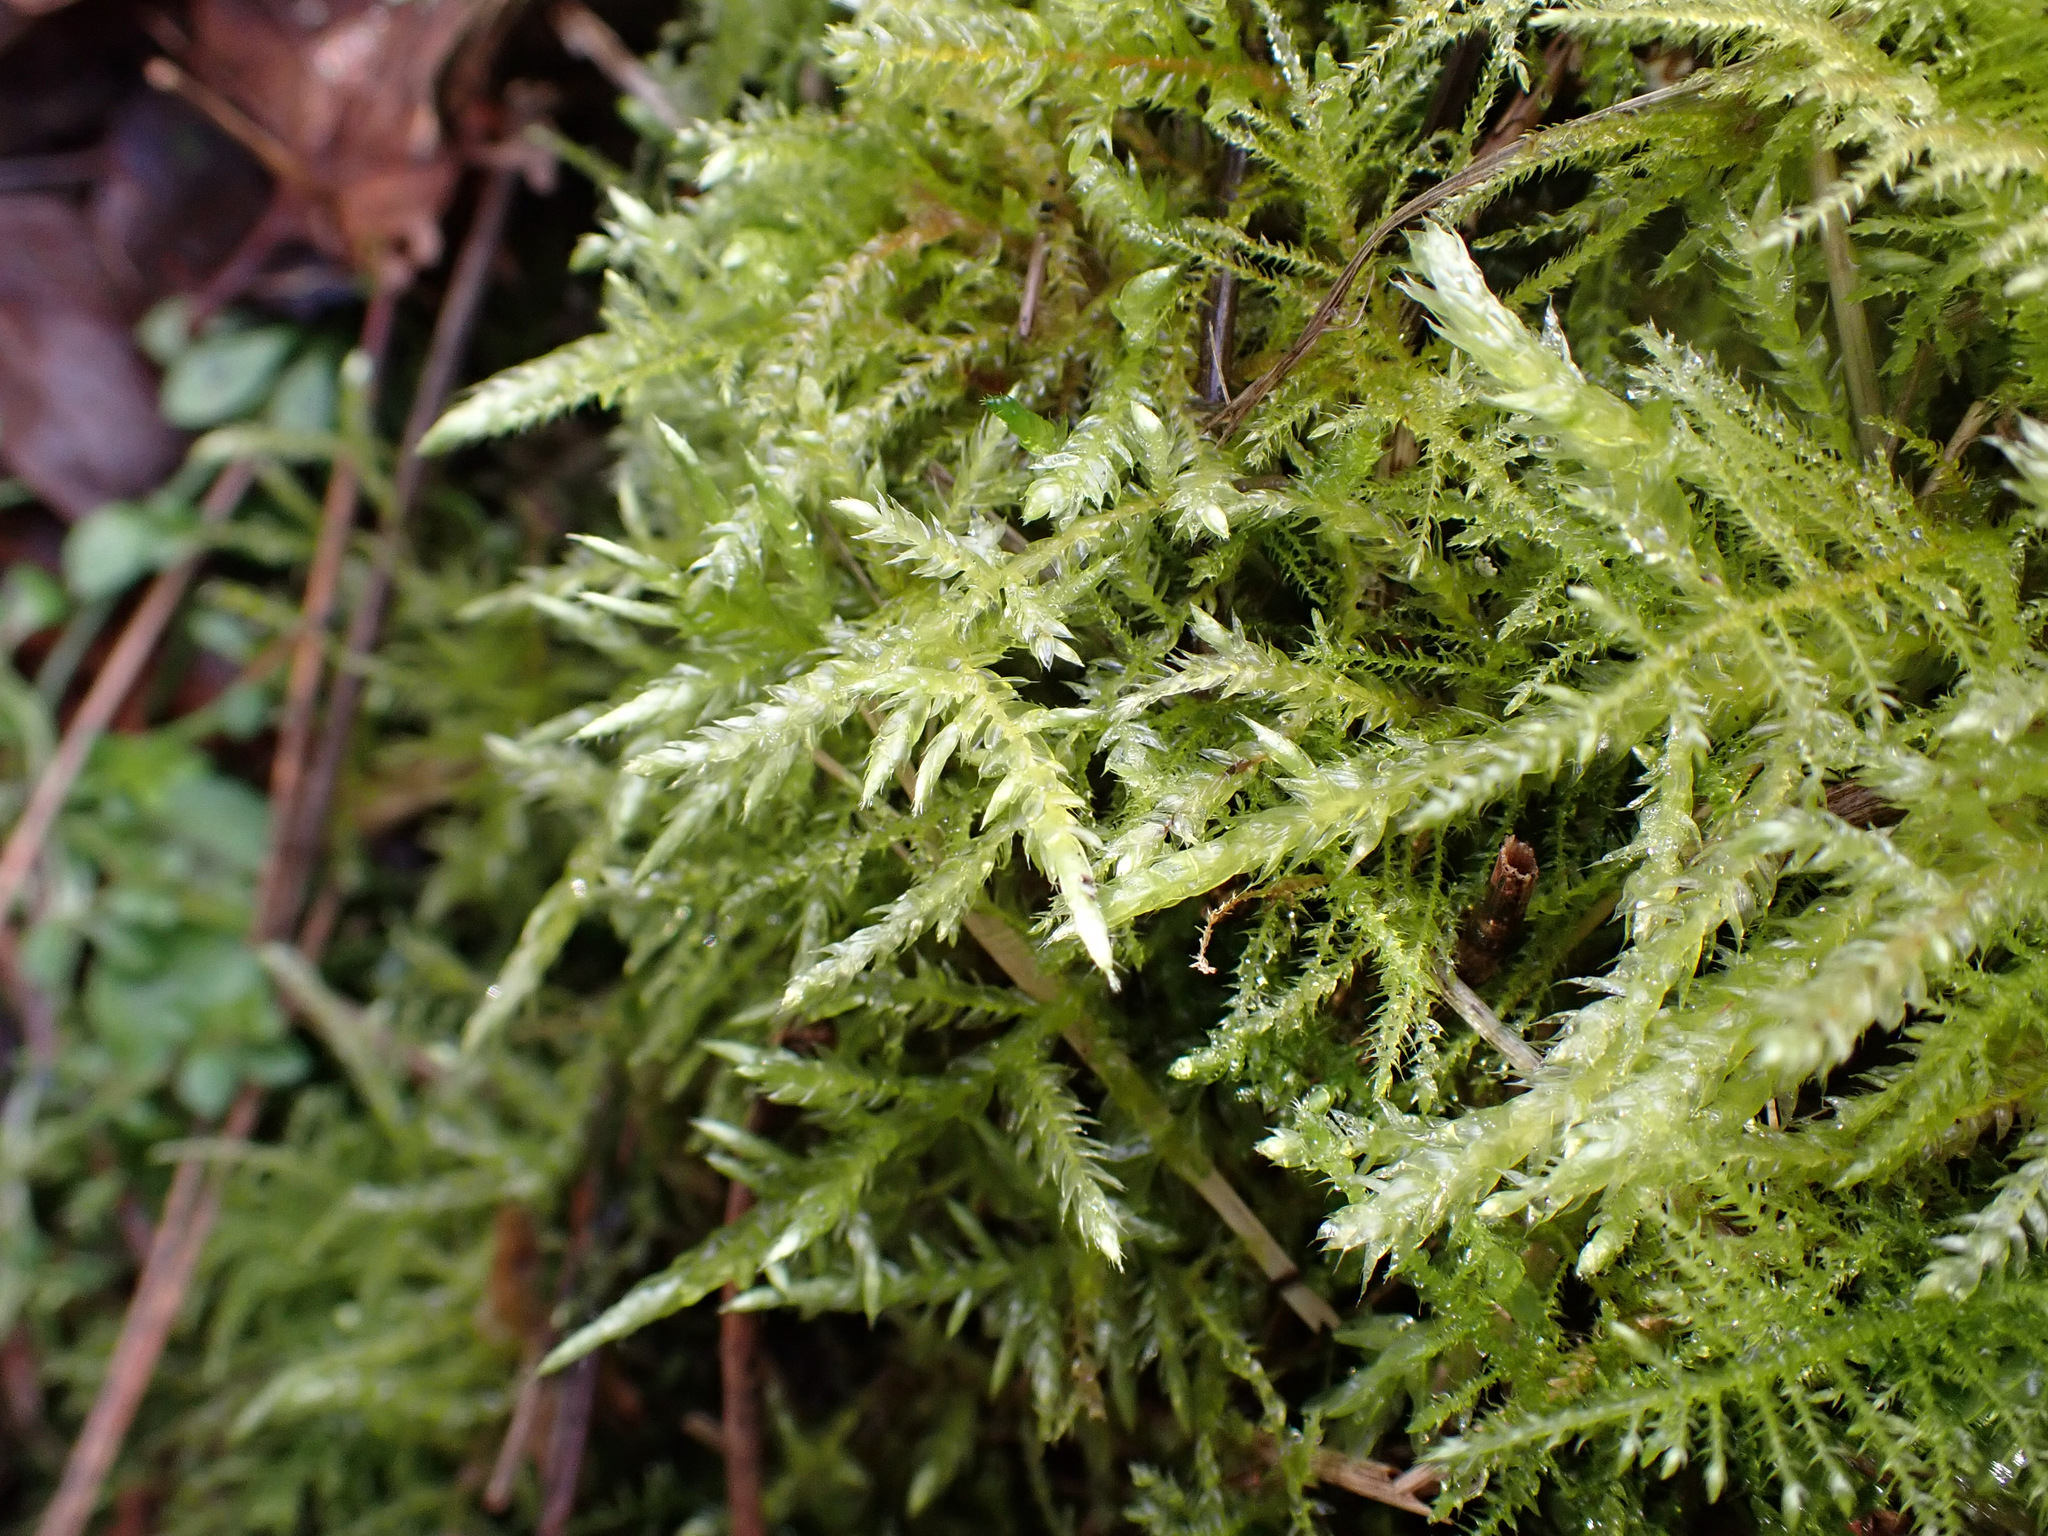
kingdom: Plantae
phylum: Bryophyta
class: Bryopsida
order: Hypnales
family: Brachytheciaceae
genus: Cirriphyllum
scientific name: Cirriphyllum piliferum
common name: Hair-pointed moss
